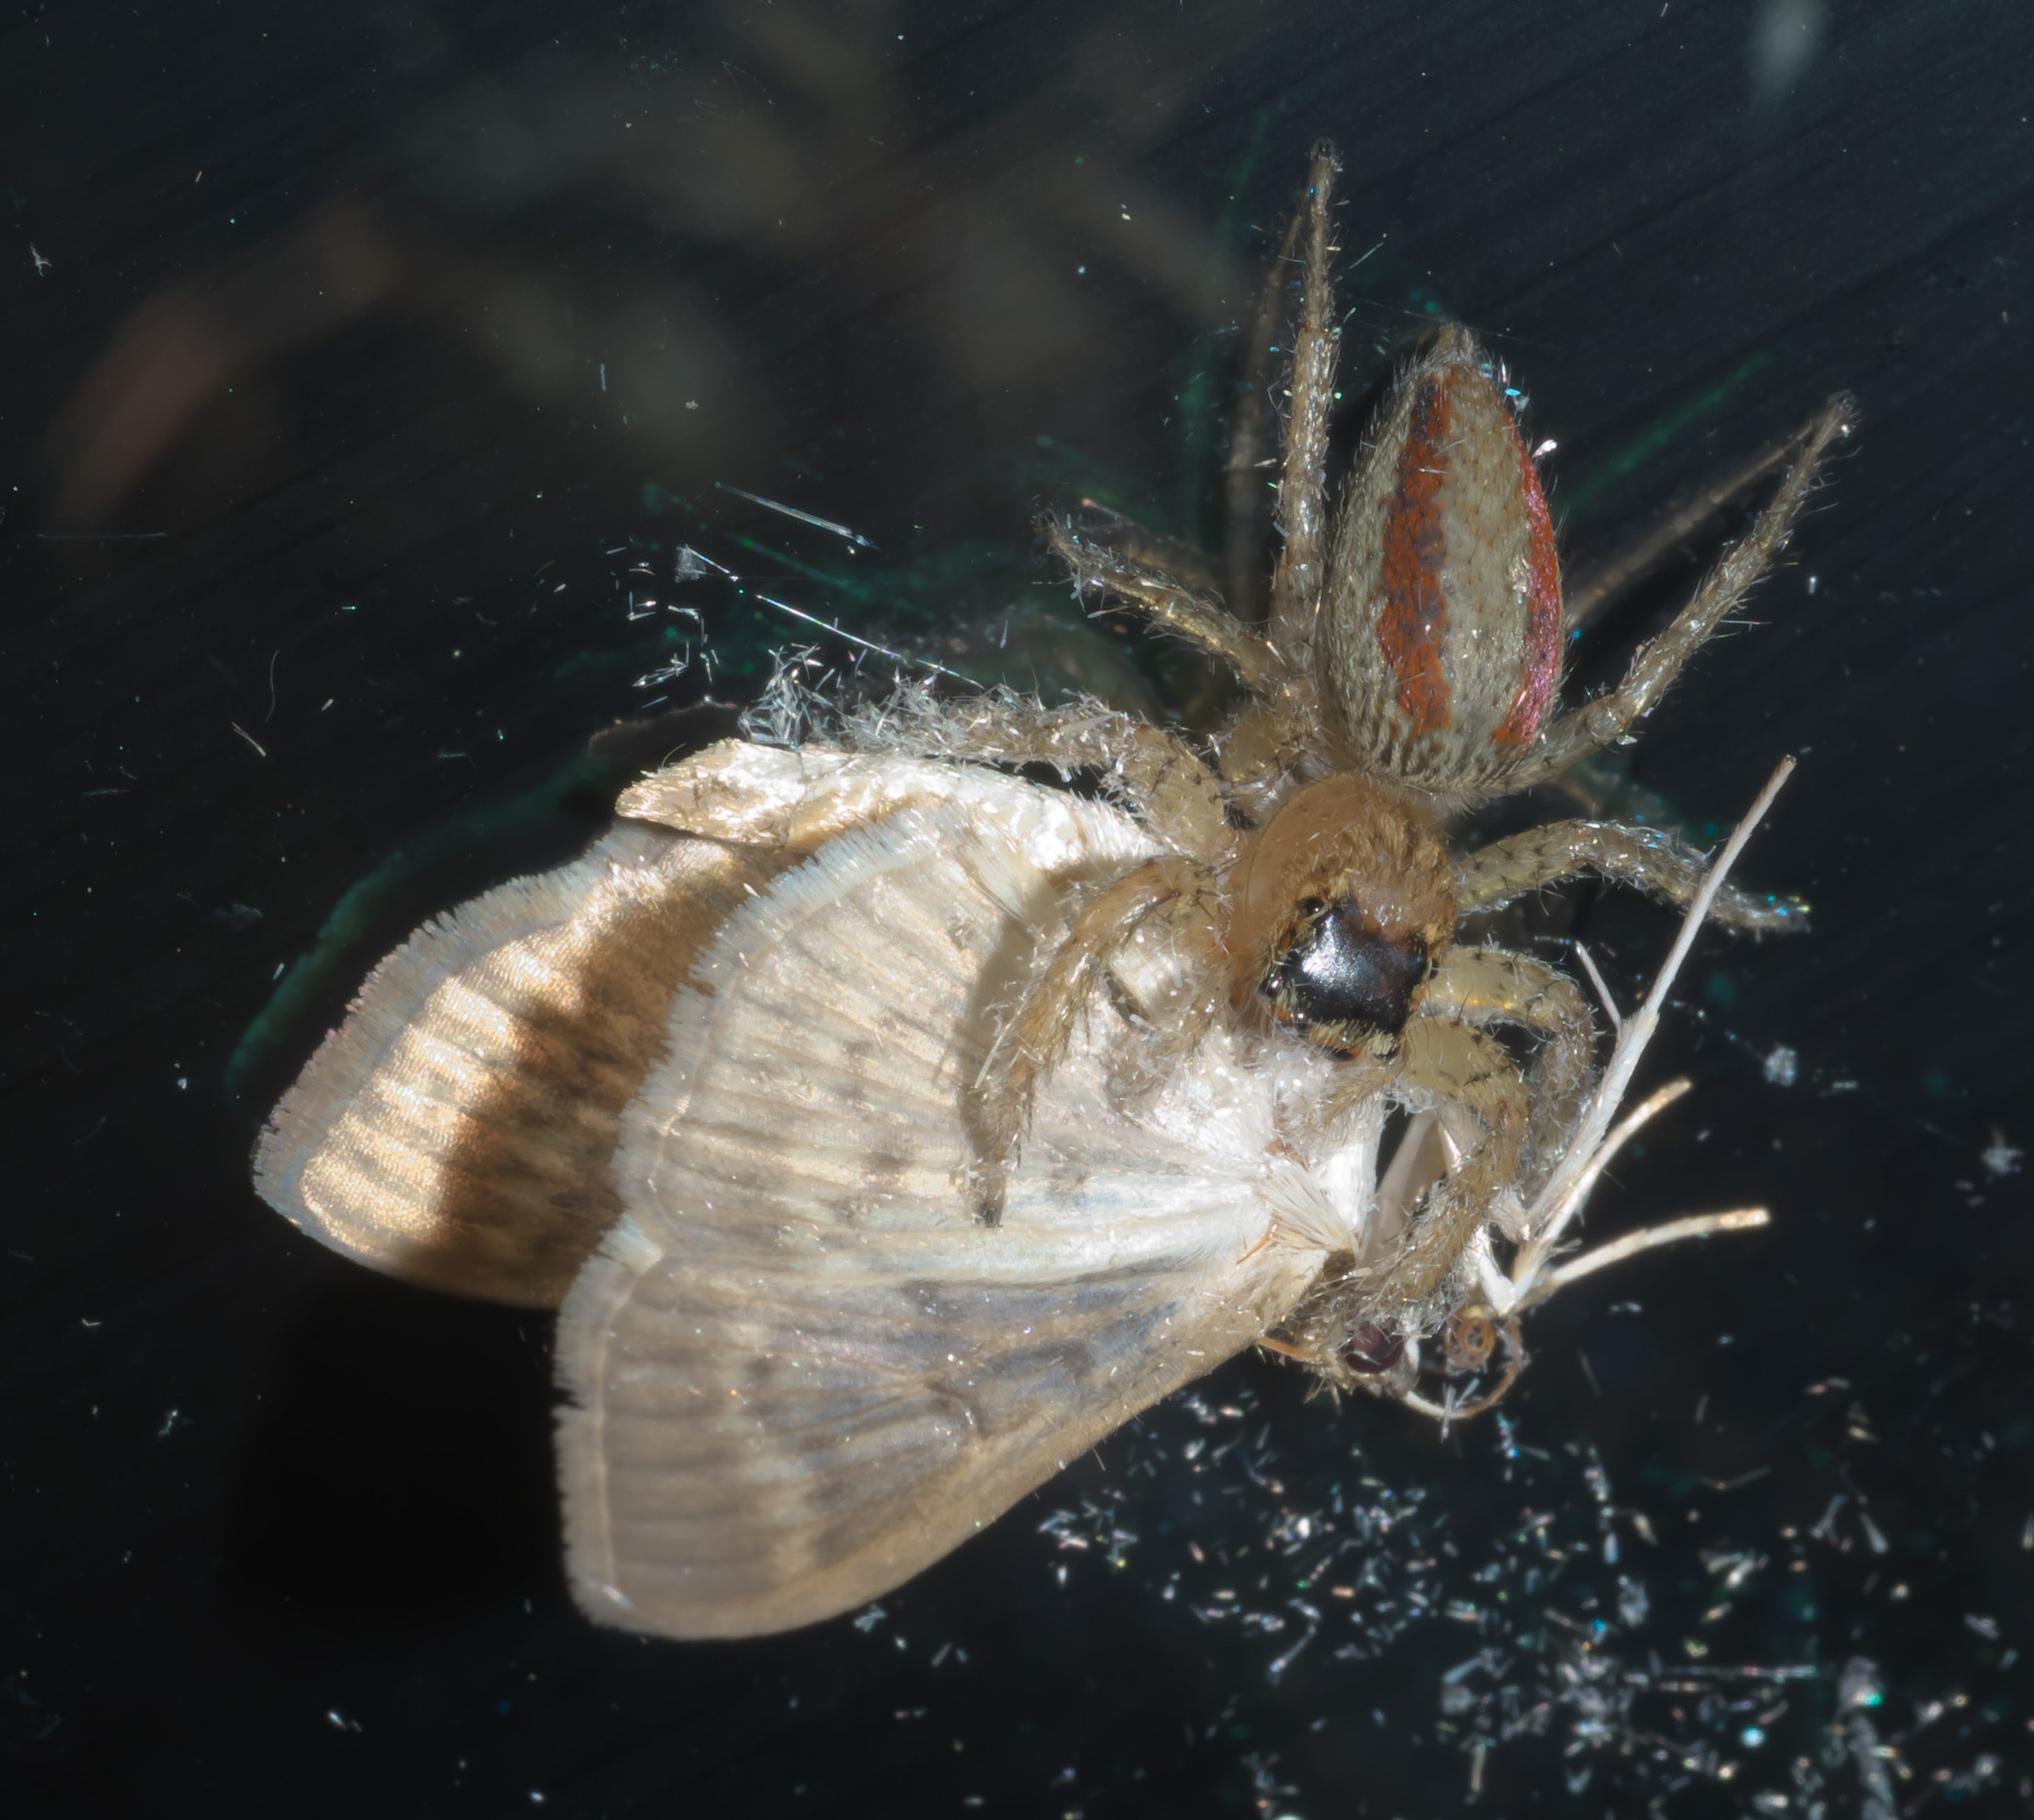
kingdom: Animalia
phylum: Arthropoda
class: Arachnida
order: Araneae
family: Salticidae
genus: Maevia
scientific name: Maevia inclemens
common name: Dimorphic jumper
